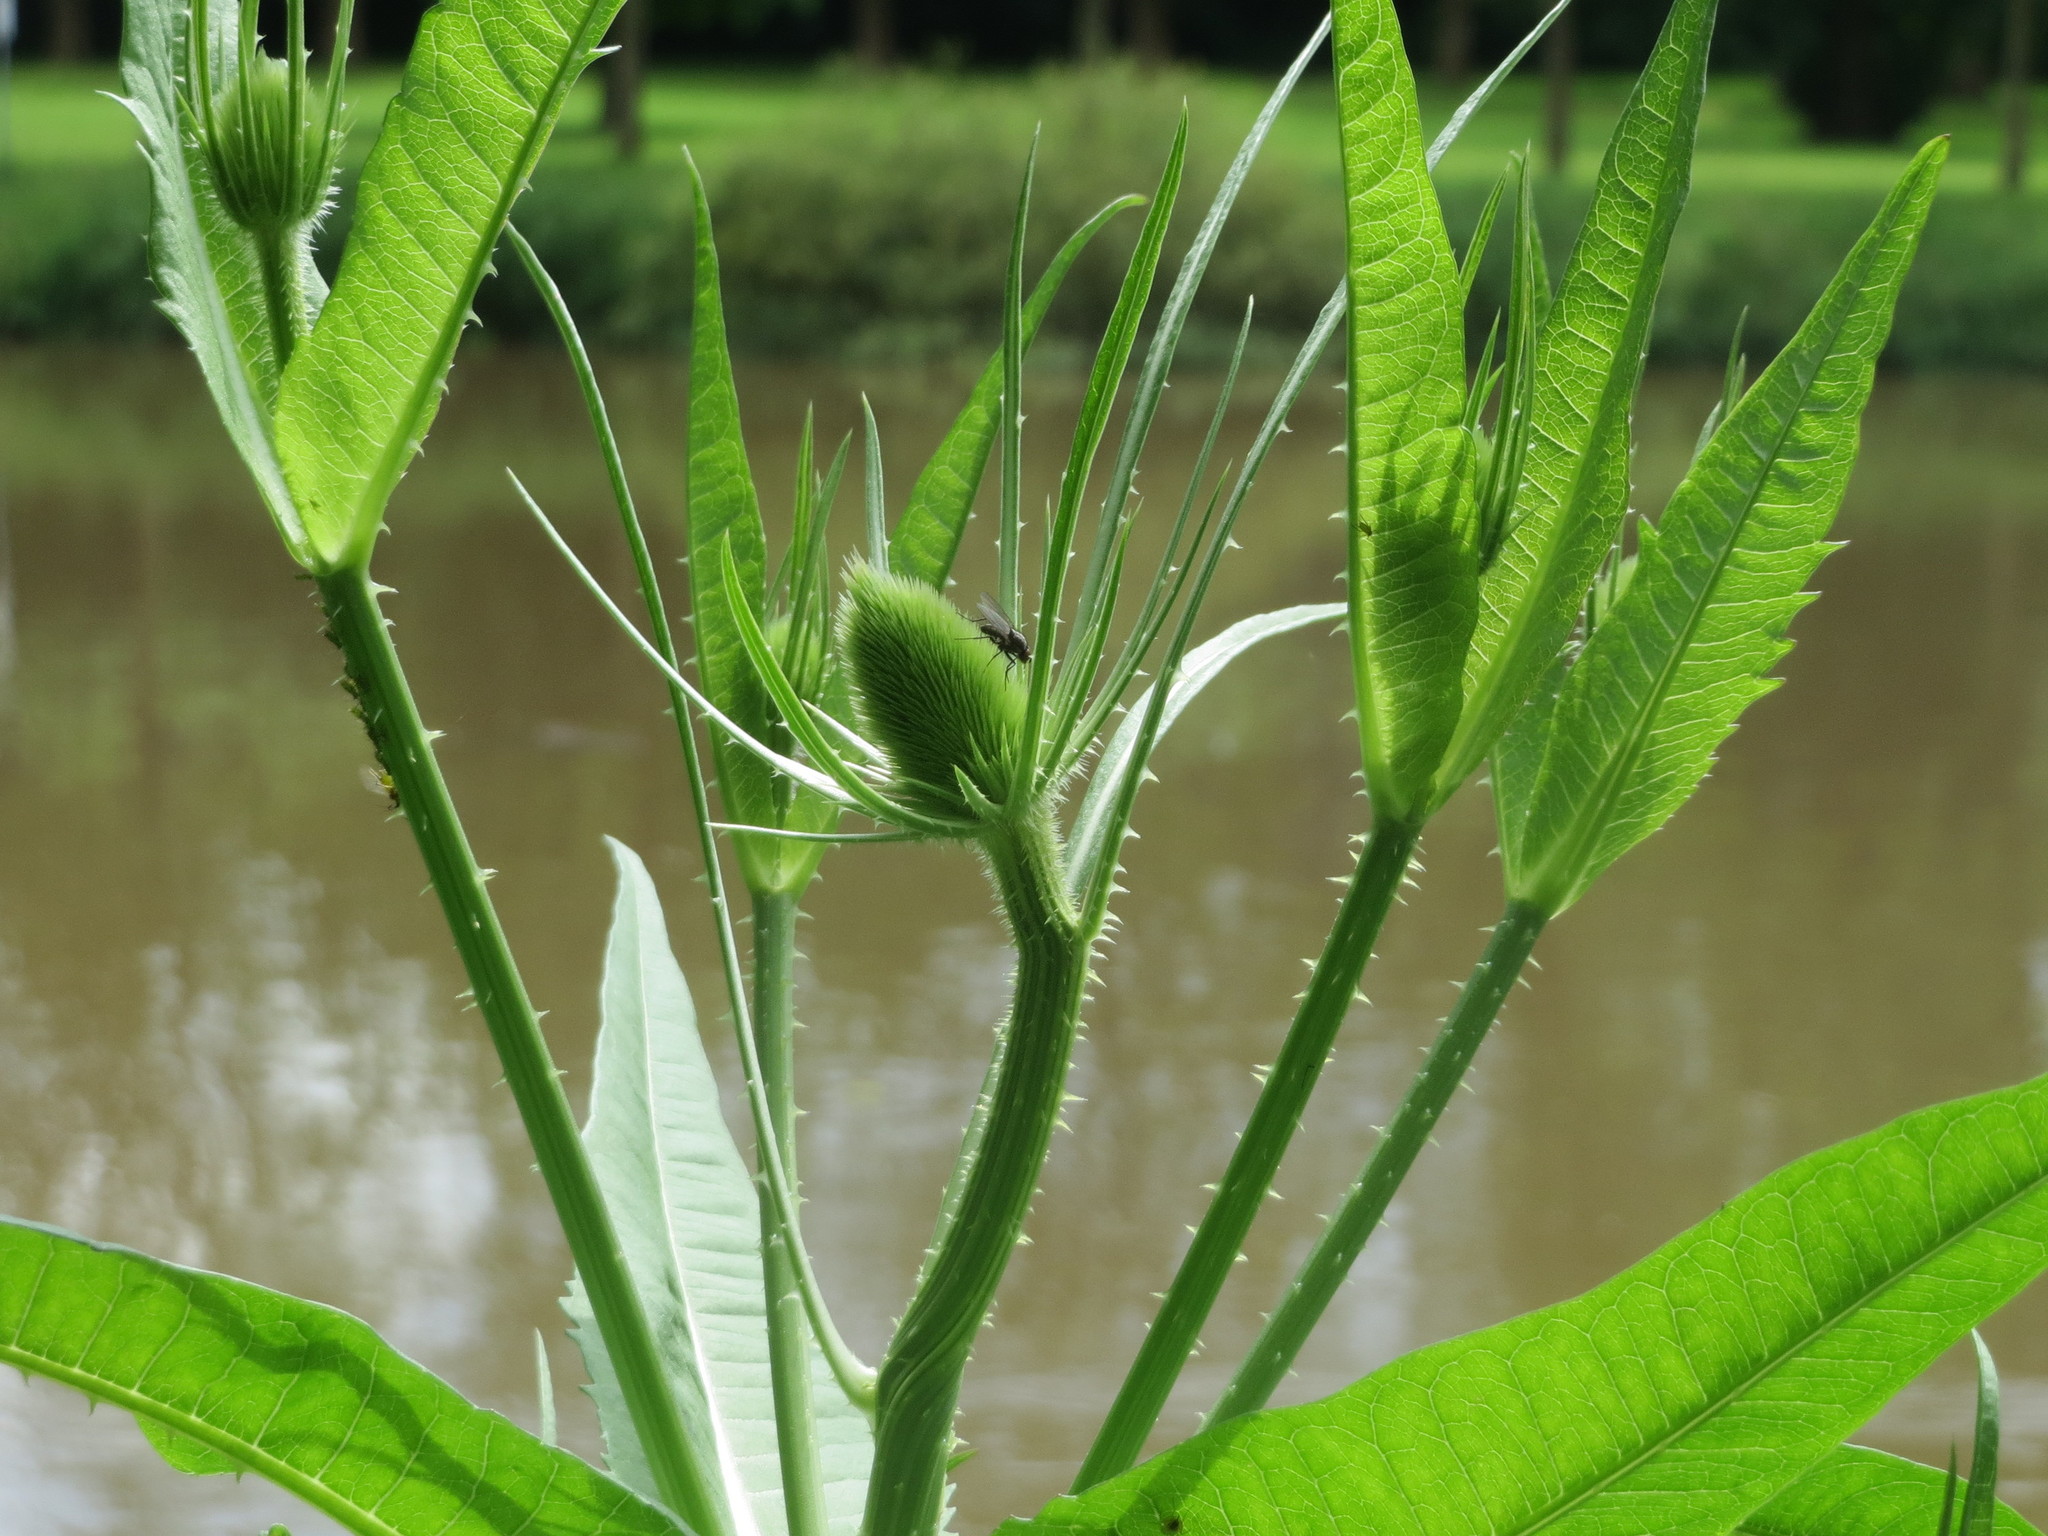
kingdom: Plantae
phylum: Tracheophyta
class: Magnoliopsida
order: Dipsacales
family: Caprifoliaceae
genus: Dipsacus
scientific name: Dipsacus fullonum
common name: Teasel
